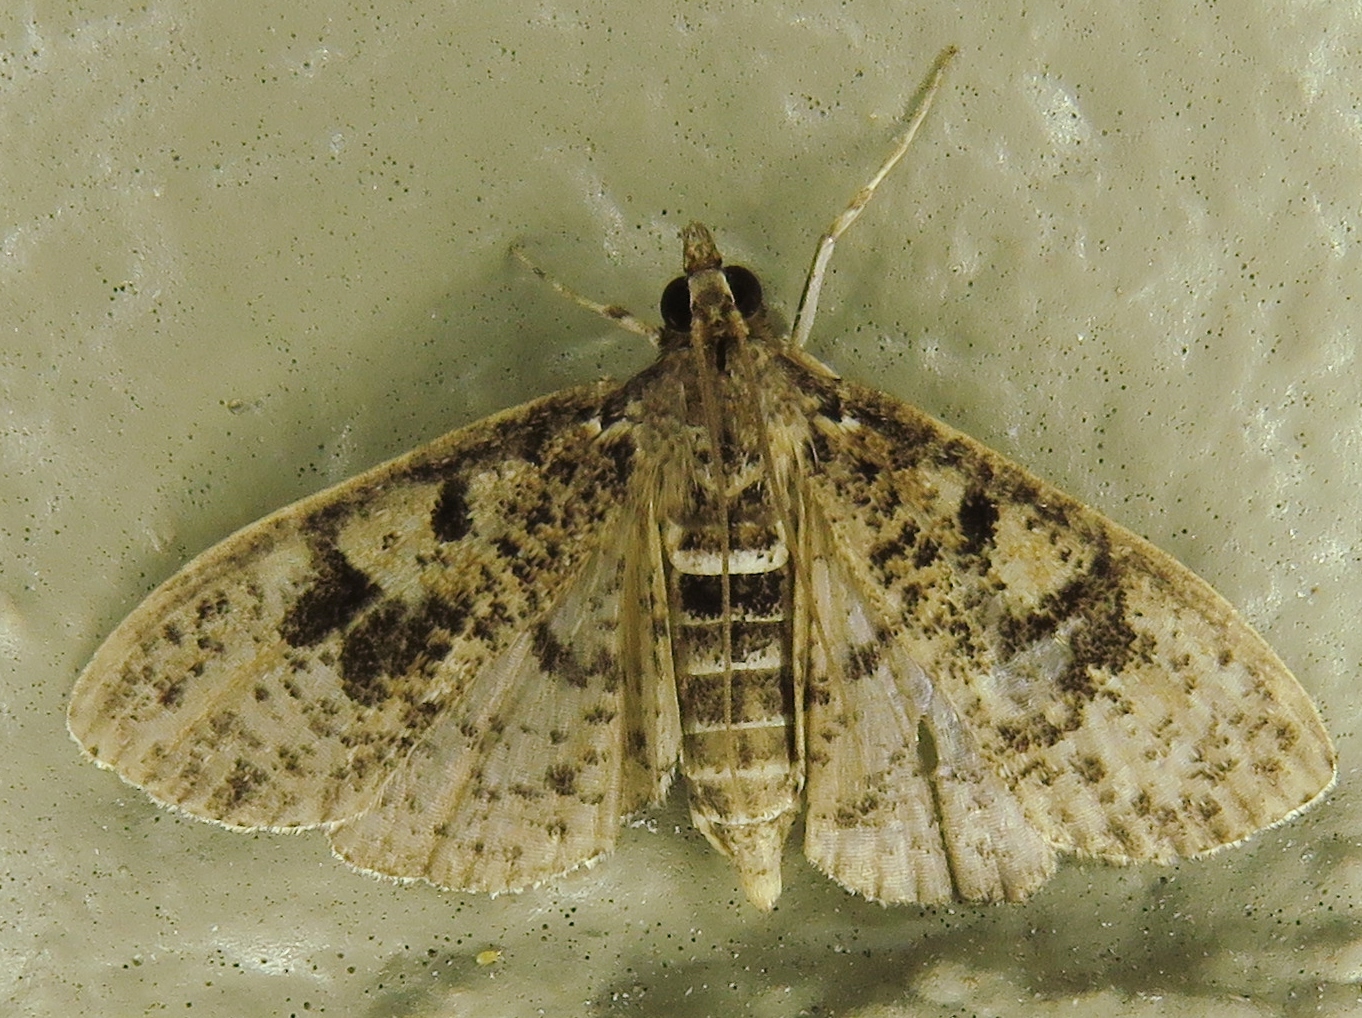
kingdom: Animalia
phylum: Arthropoda
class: Insecta
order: Lepidoptera
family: Crambidae
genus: Palpita
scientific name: Palpita magniferalis
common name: Splendid palpita moth
